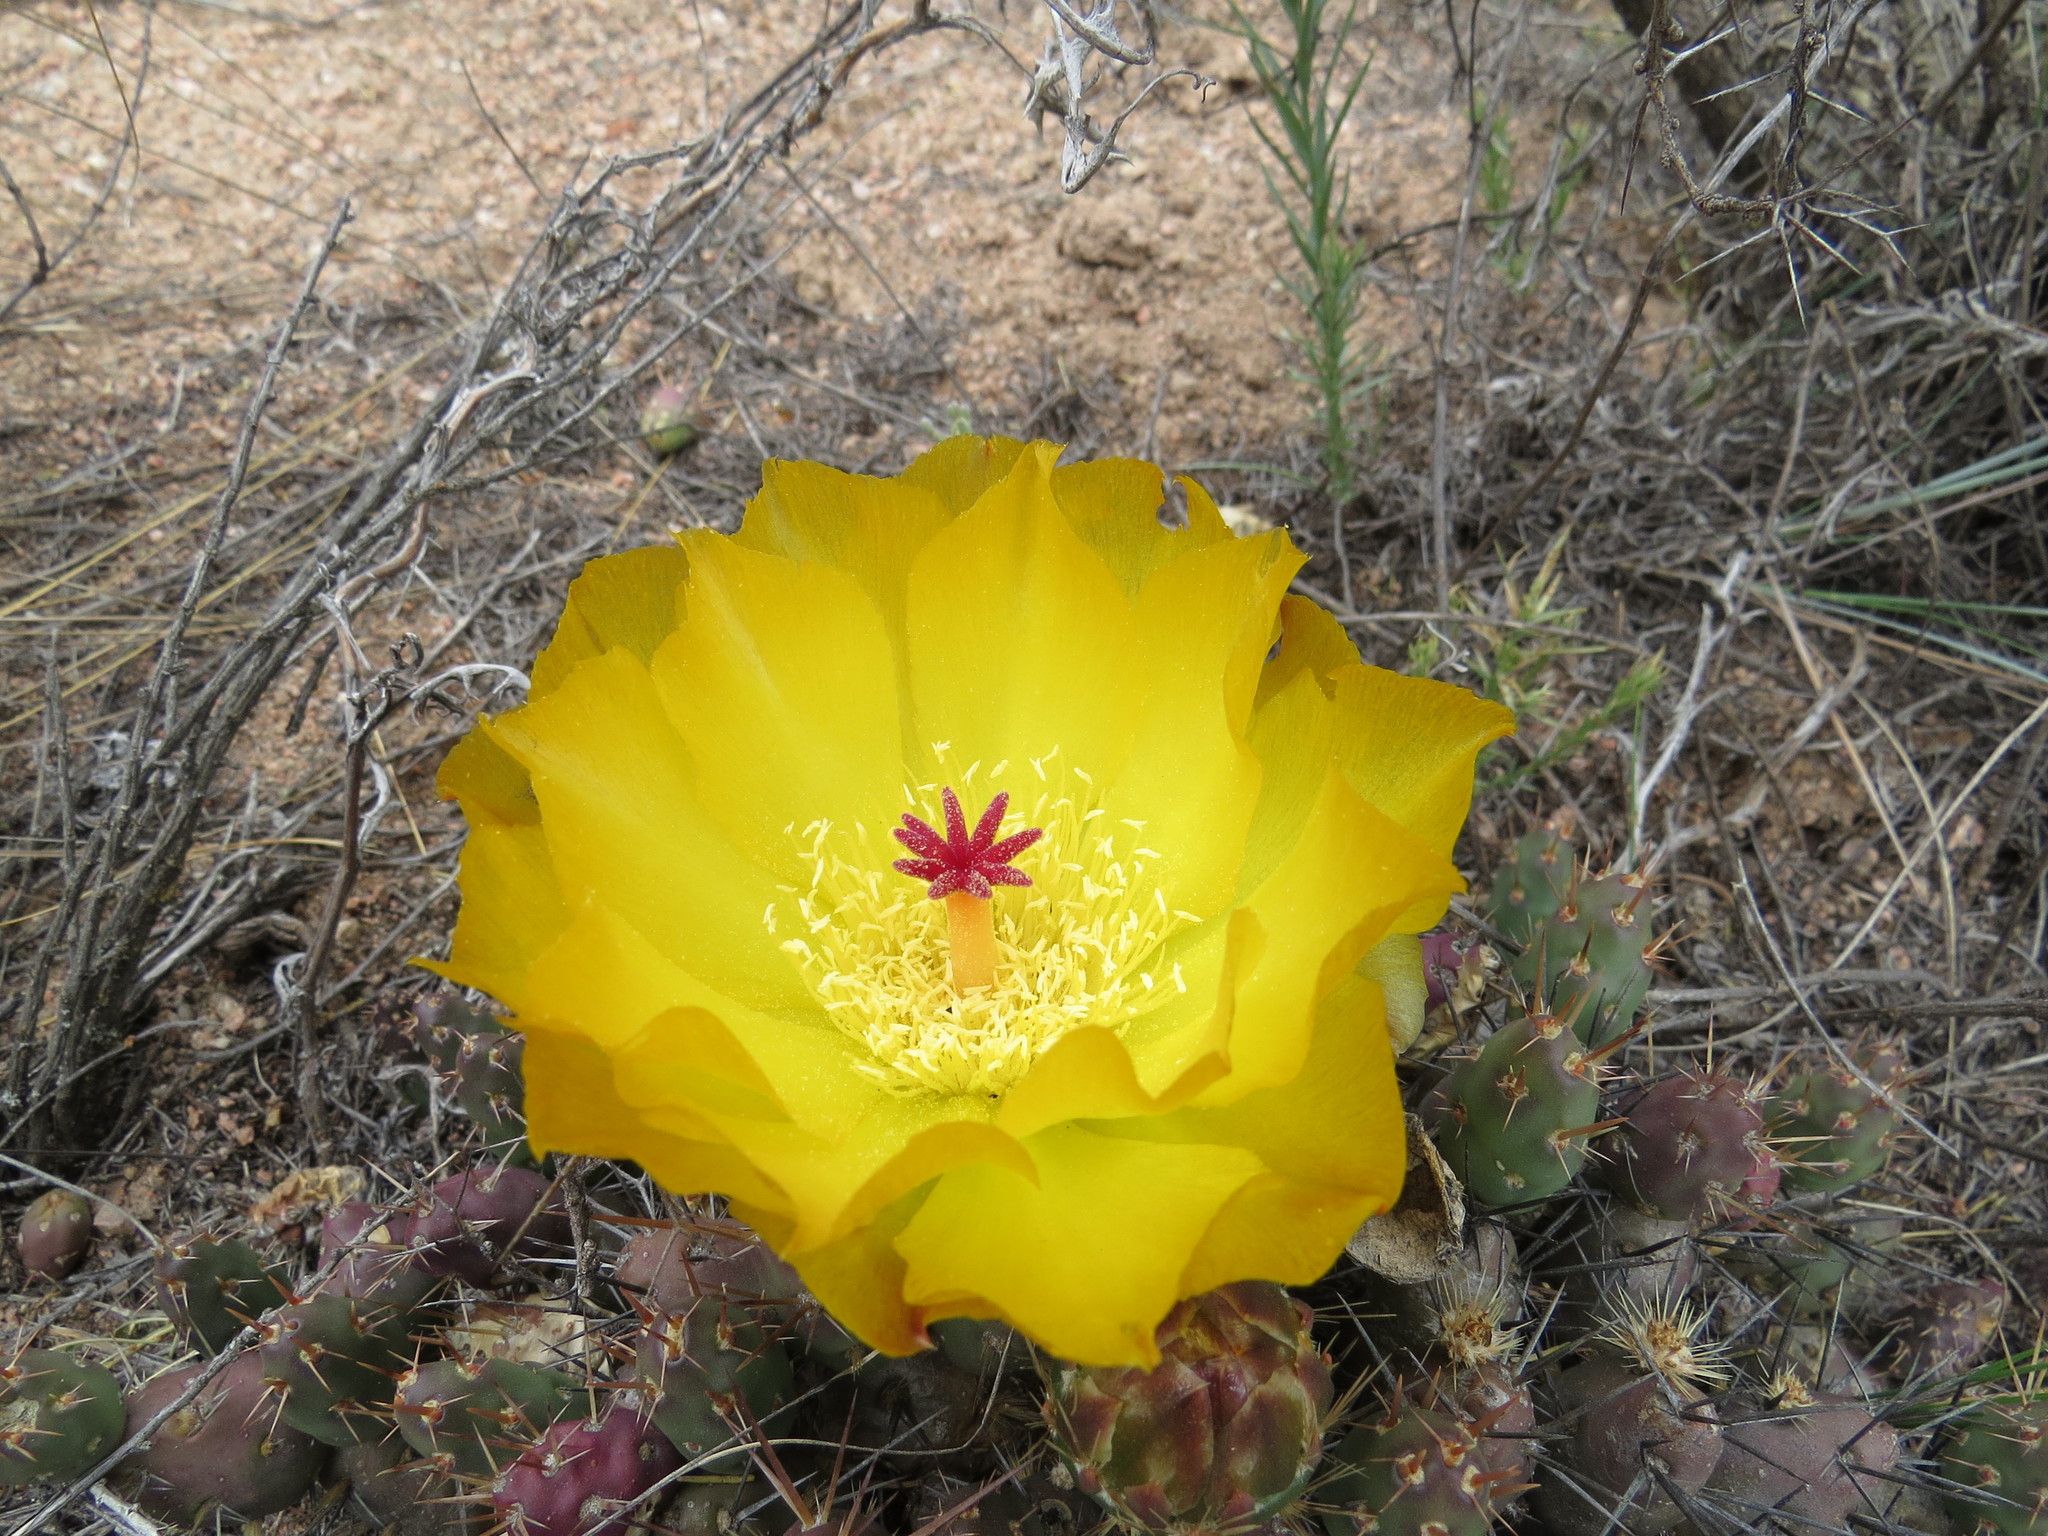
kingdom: Plantae
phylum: Tracheophyta
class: Magnoliopsida
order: Caryophyllales
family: Cactaceae
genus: Maihueniopsis
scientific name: Maihueniopsis ovata
